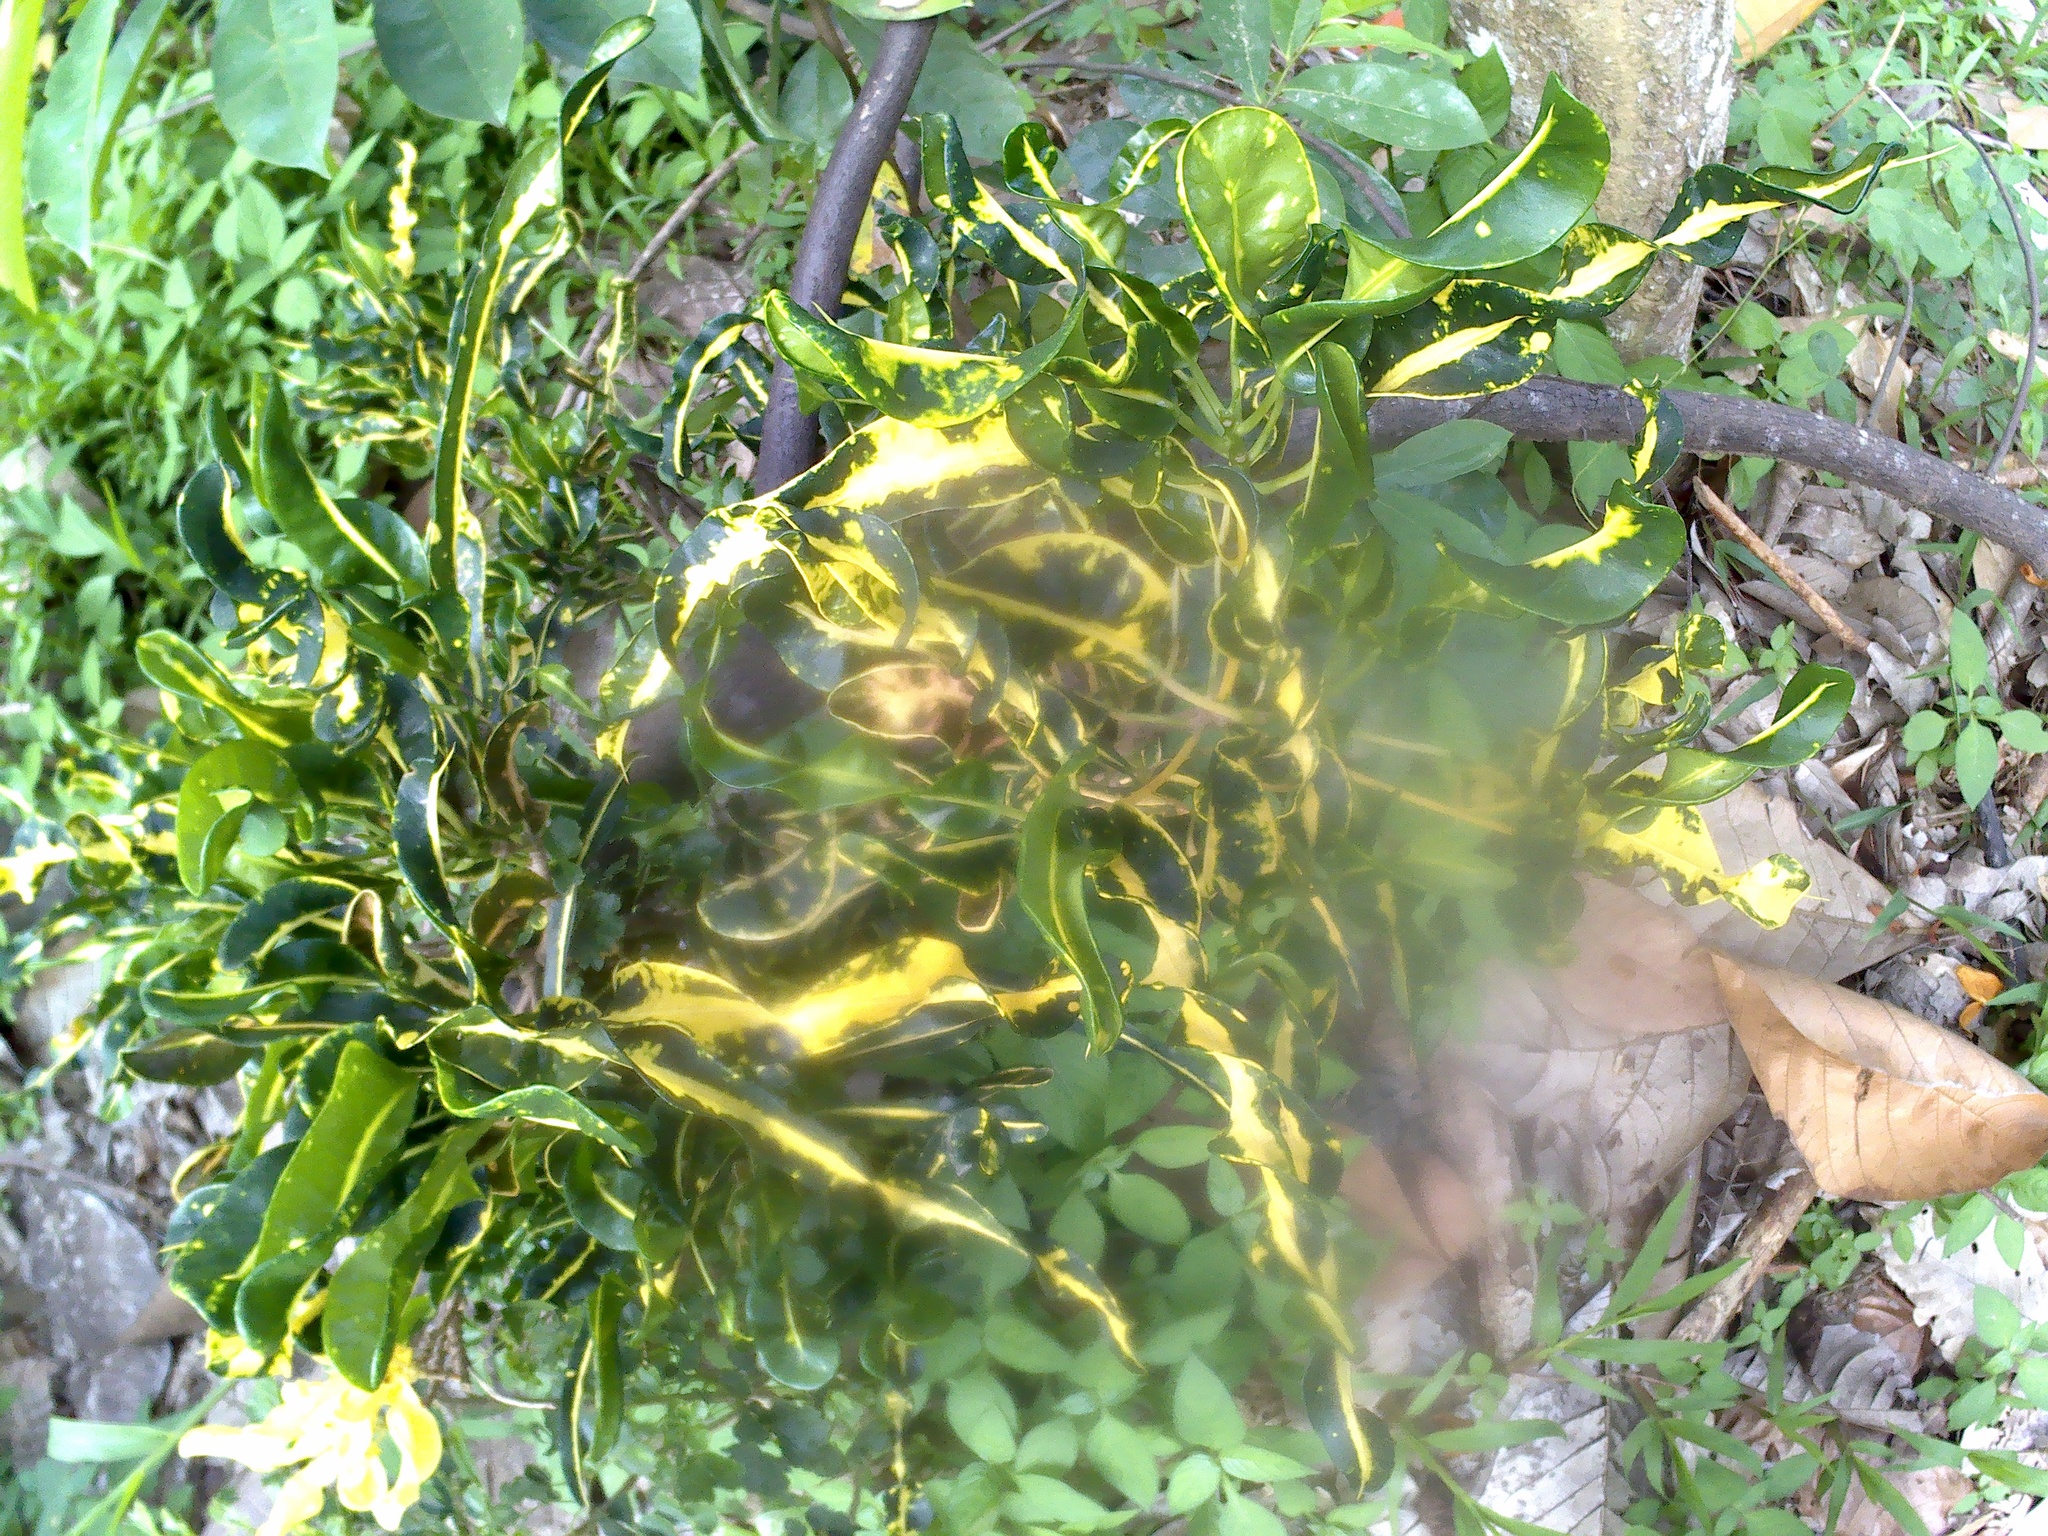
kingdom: Plantae
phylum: Tracheophyta
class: Magnoliopsida
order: Malpighiales
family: Euphorbiaceae
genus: Codiaeum
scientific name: Codiaeum variegatum
